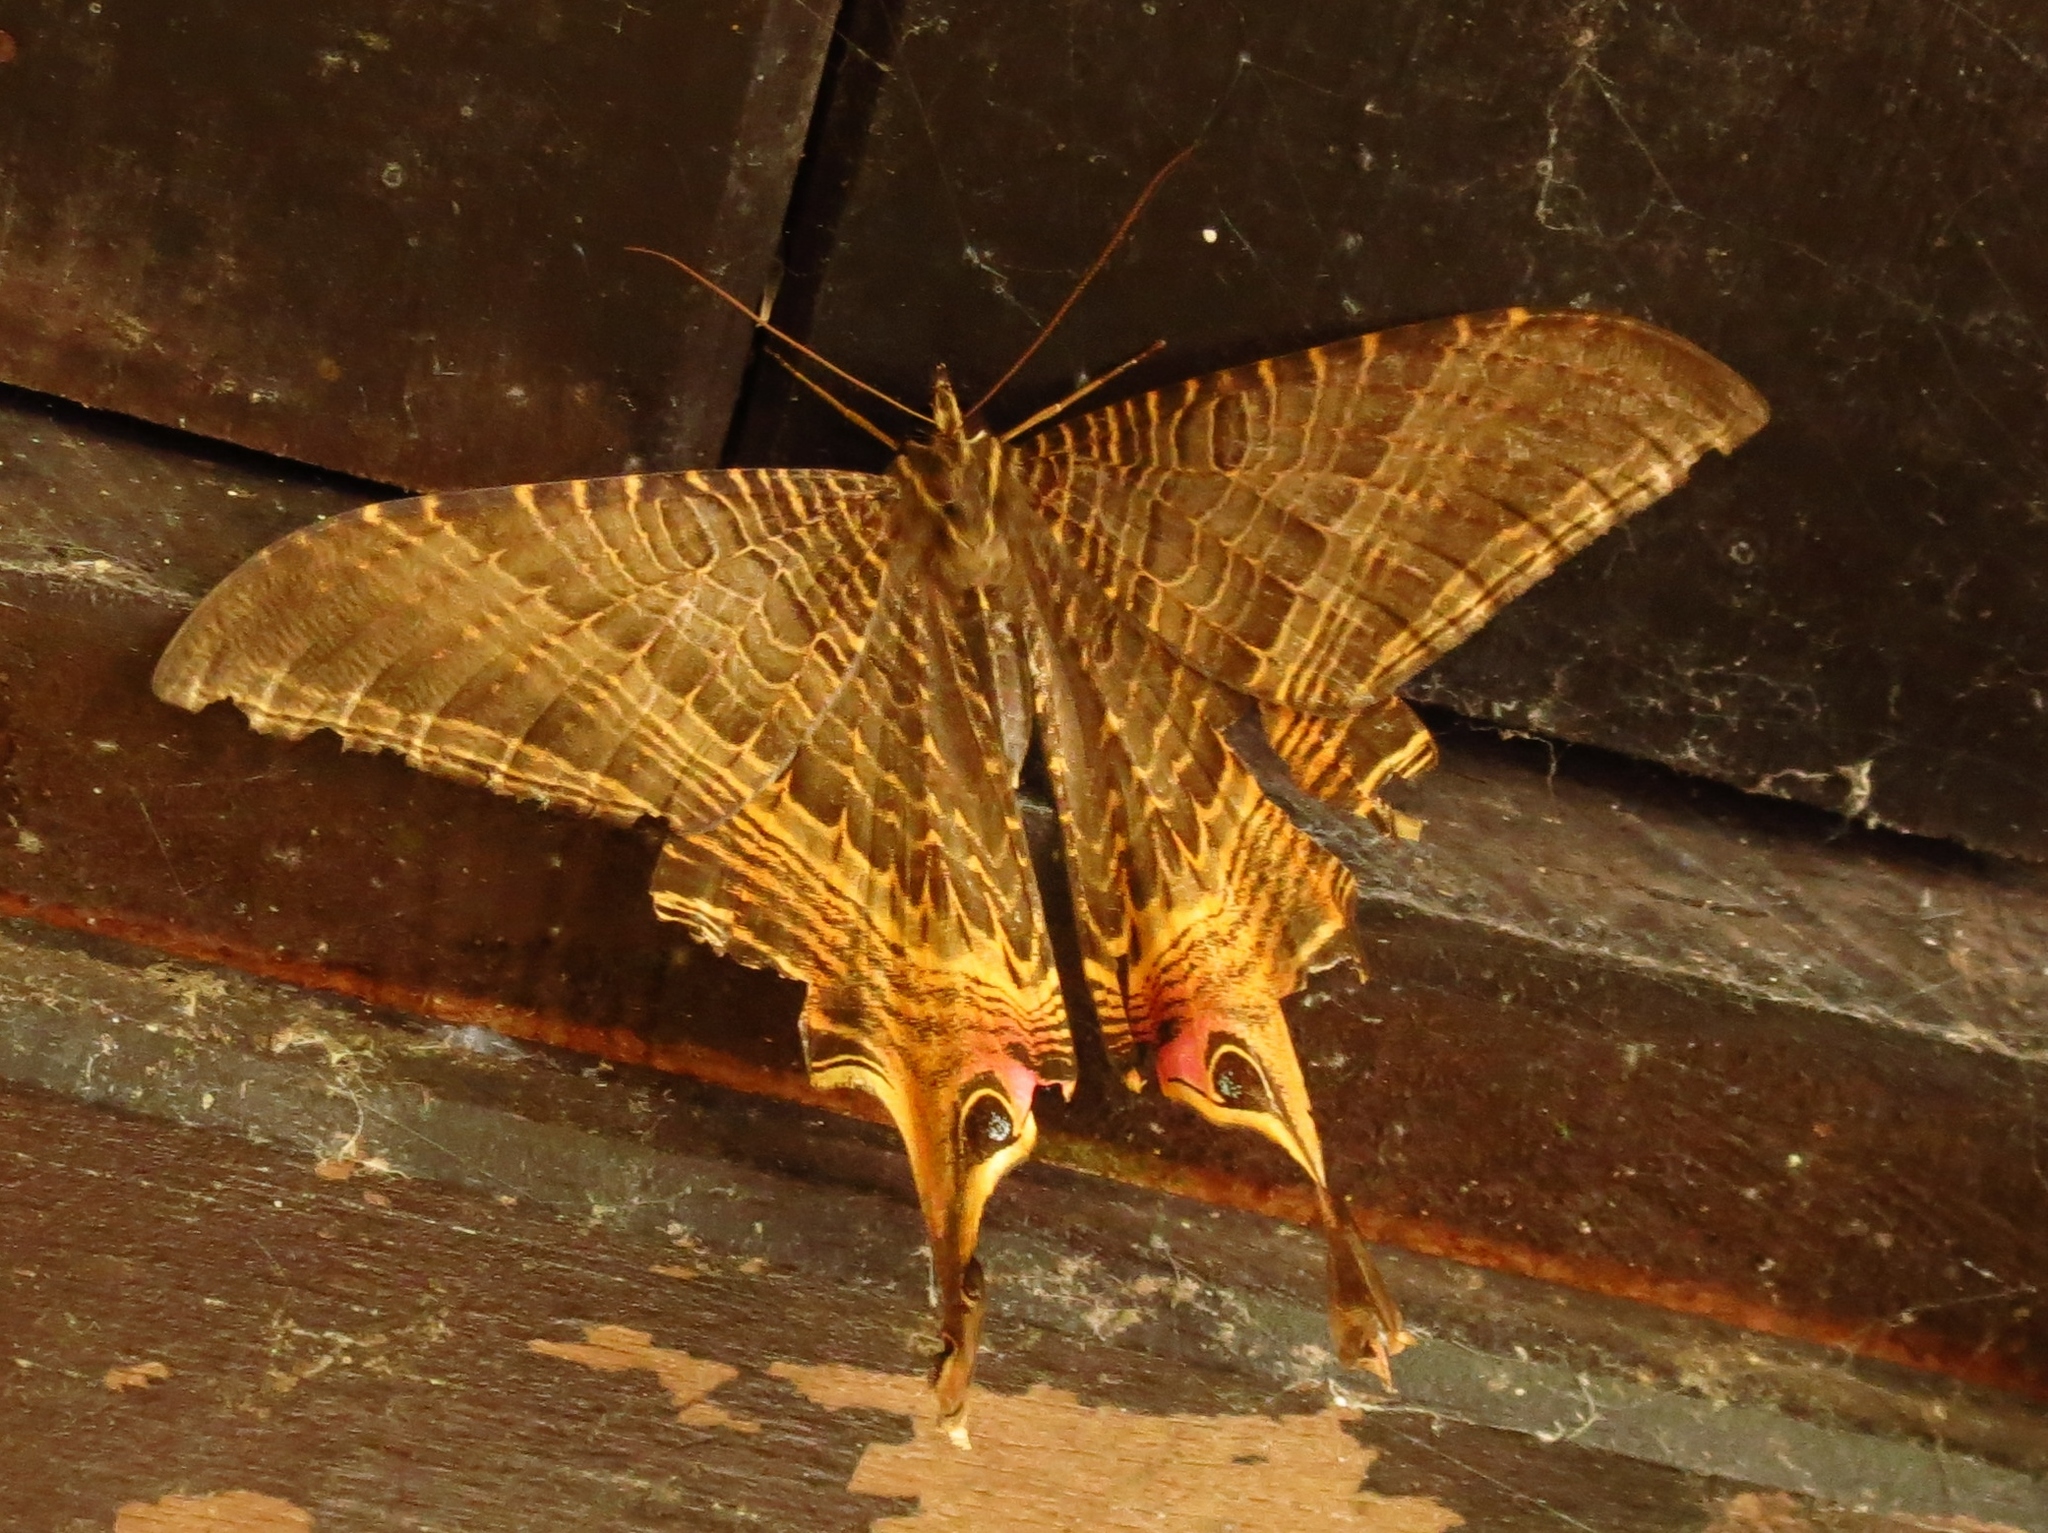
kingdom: Animalia
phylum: Arthropoda
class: Insecta
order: Lepidoptera
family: Sematuridae
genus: Nothus
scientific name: Nothus lunus
